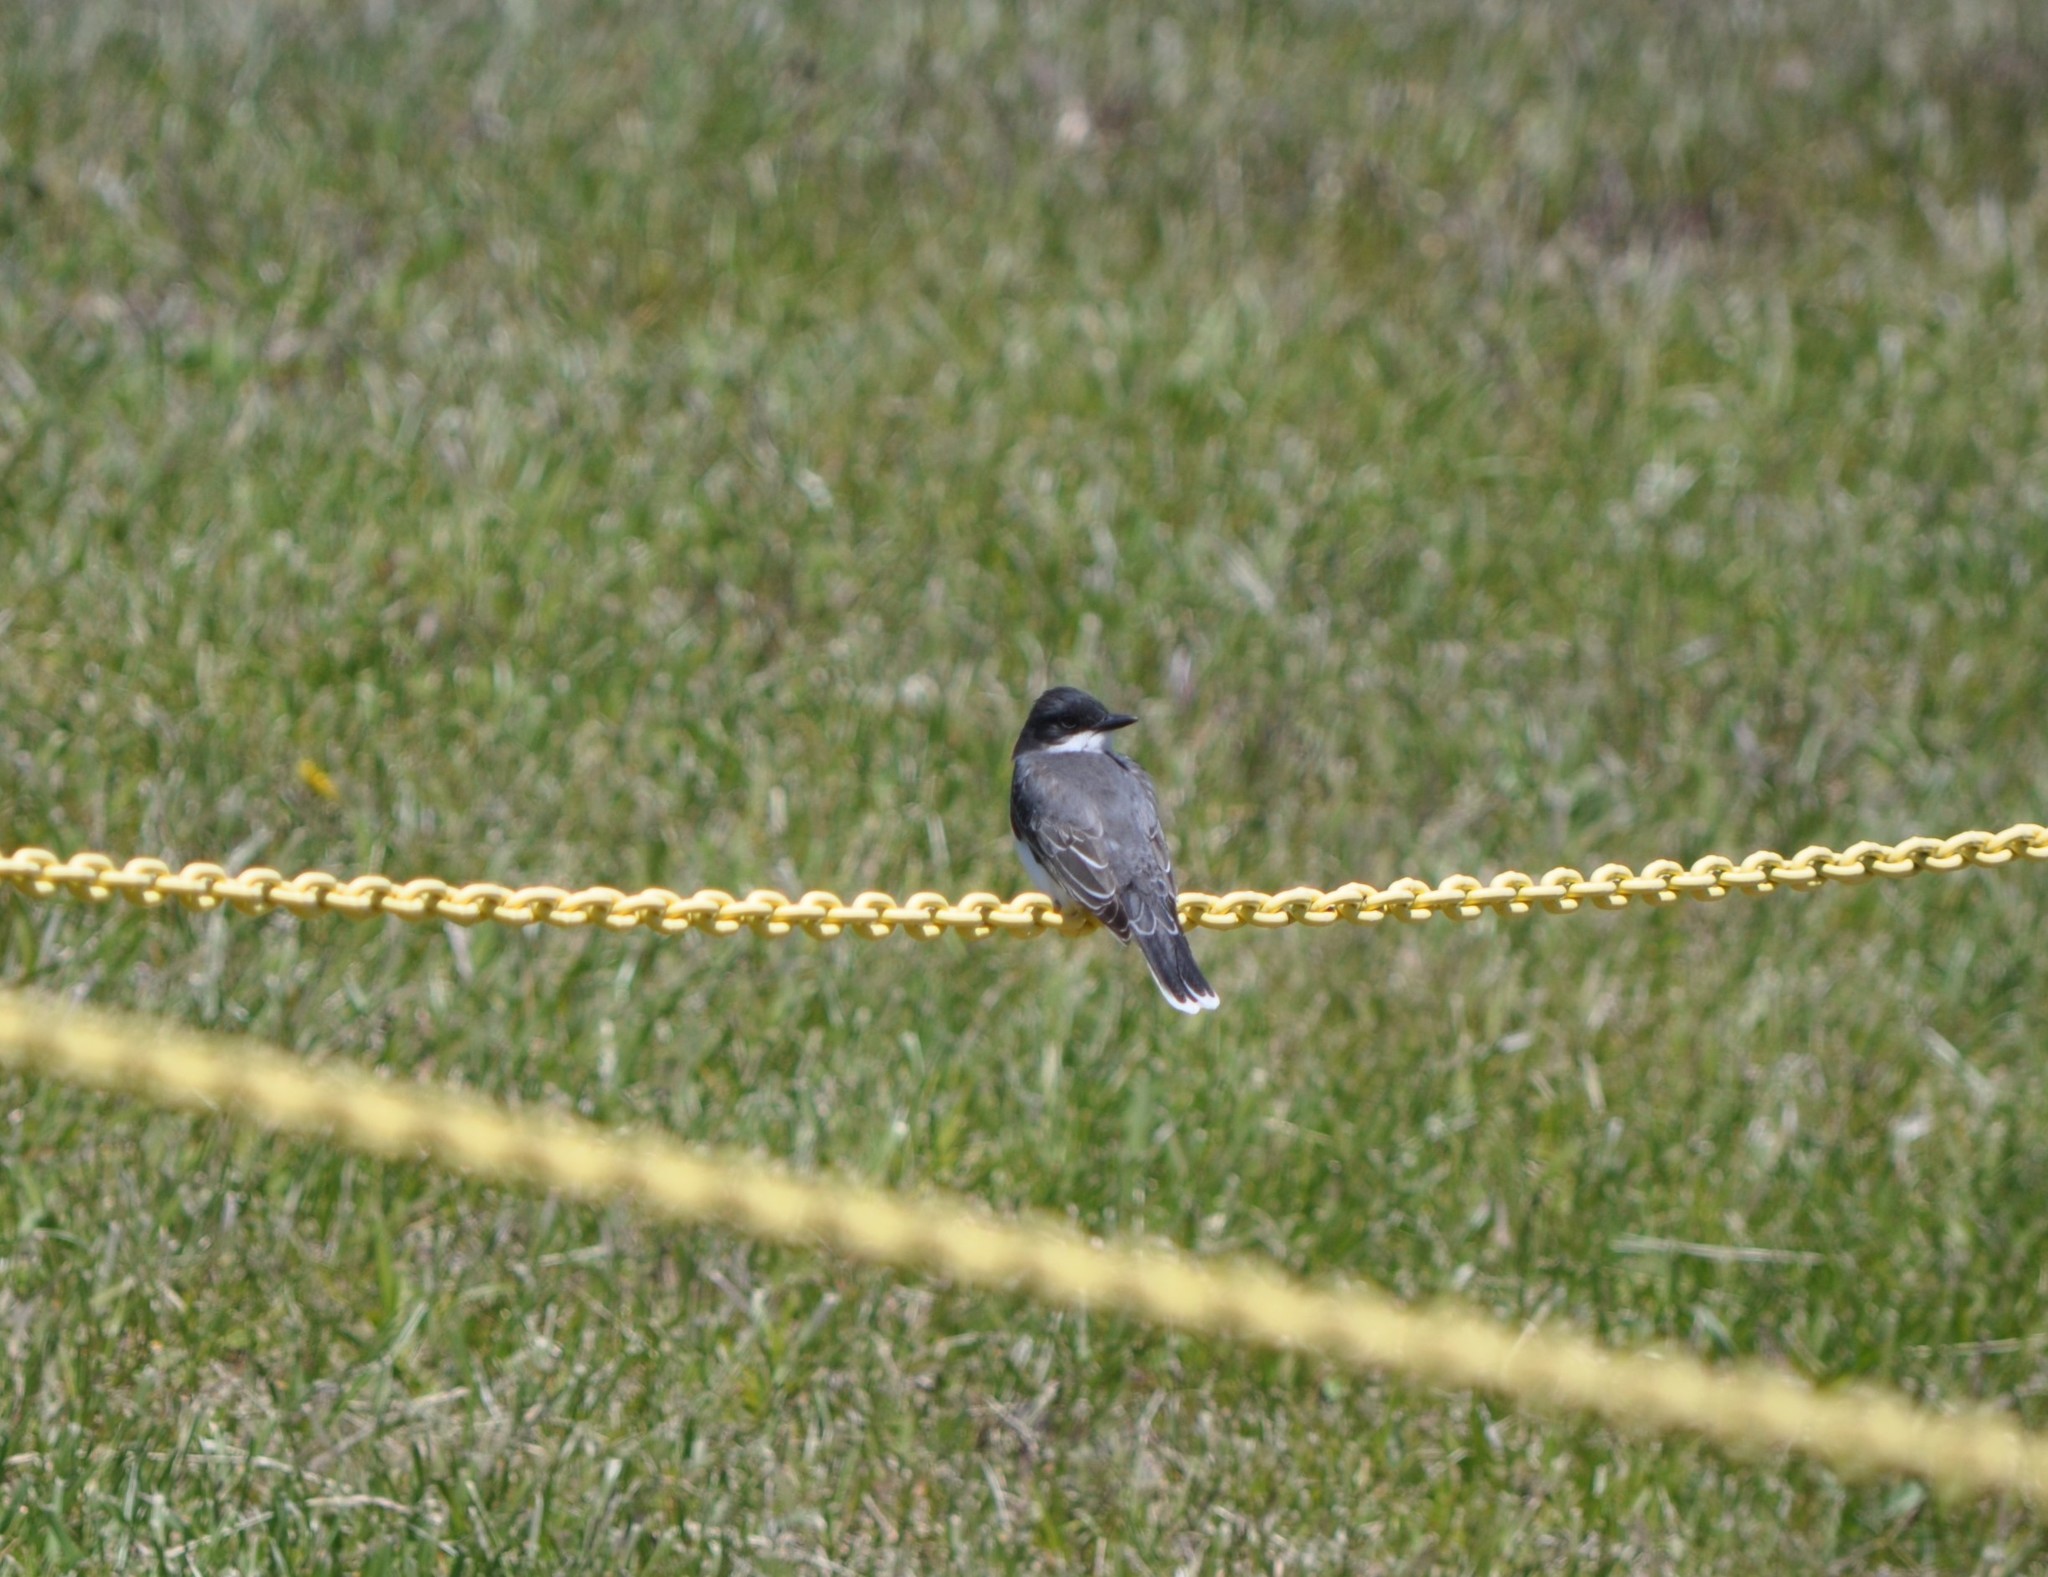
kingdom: Animalia
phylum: Chordata
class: Aves
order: Passeriformes
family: Tyrannidae
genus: Tyrannus
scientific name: Tyrannus tyrannus
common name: Eastern kingbird
